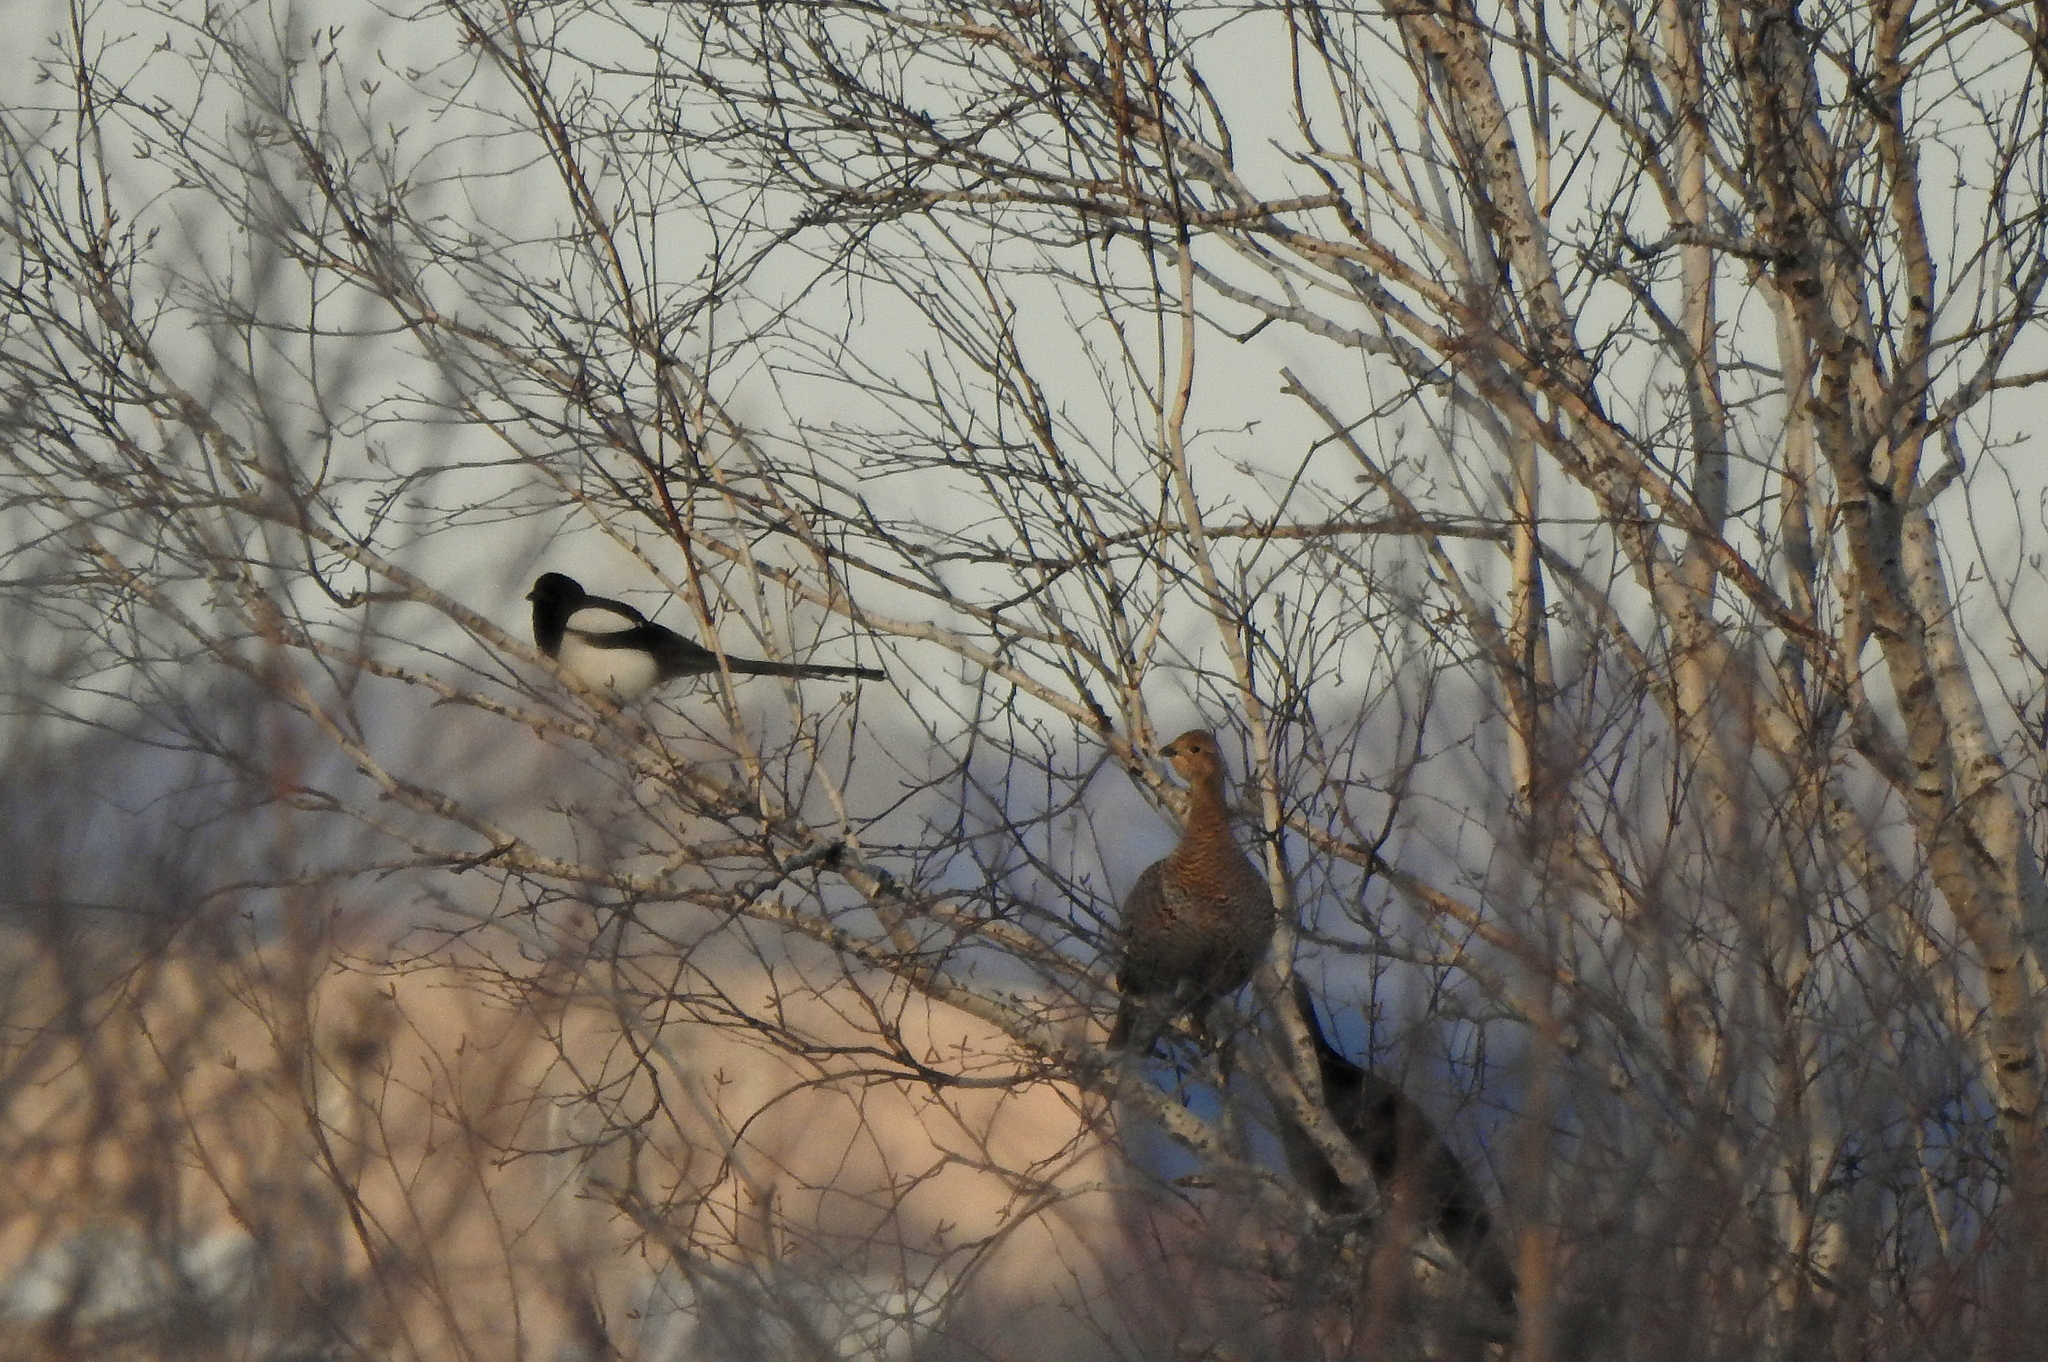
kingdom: Animalia
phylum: Chordata
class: Aves
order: Galliformes
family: Phasianidae
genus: Lyrurus
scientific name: Lyrurus tetrix
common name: Black grouse
